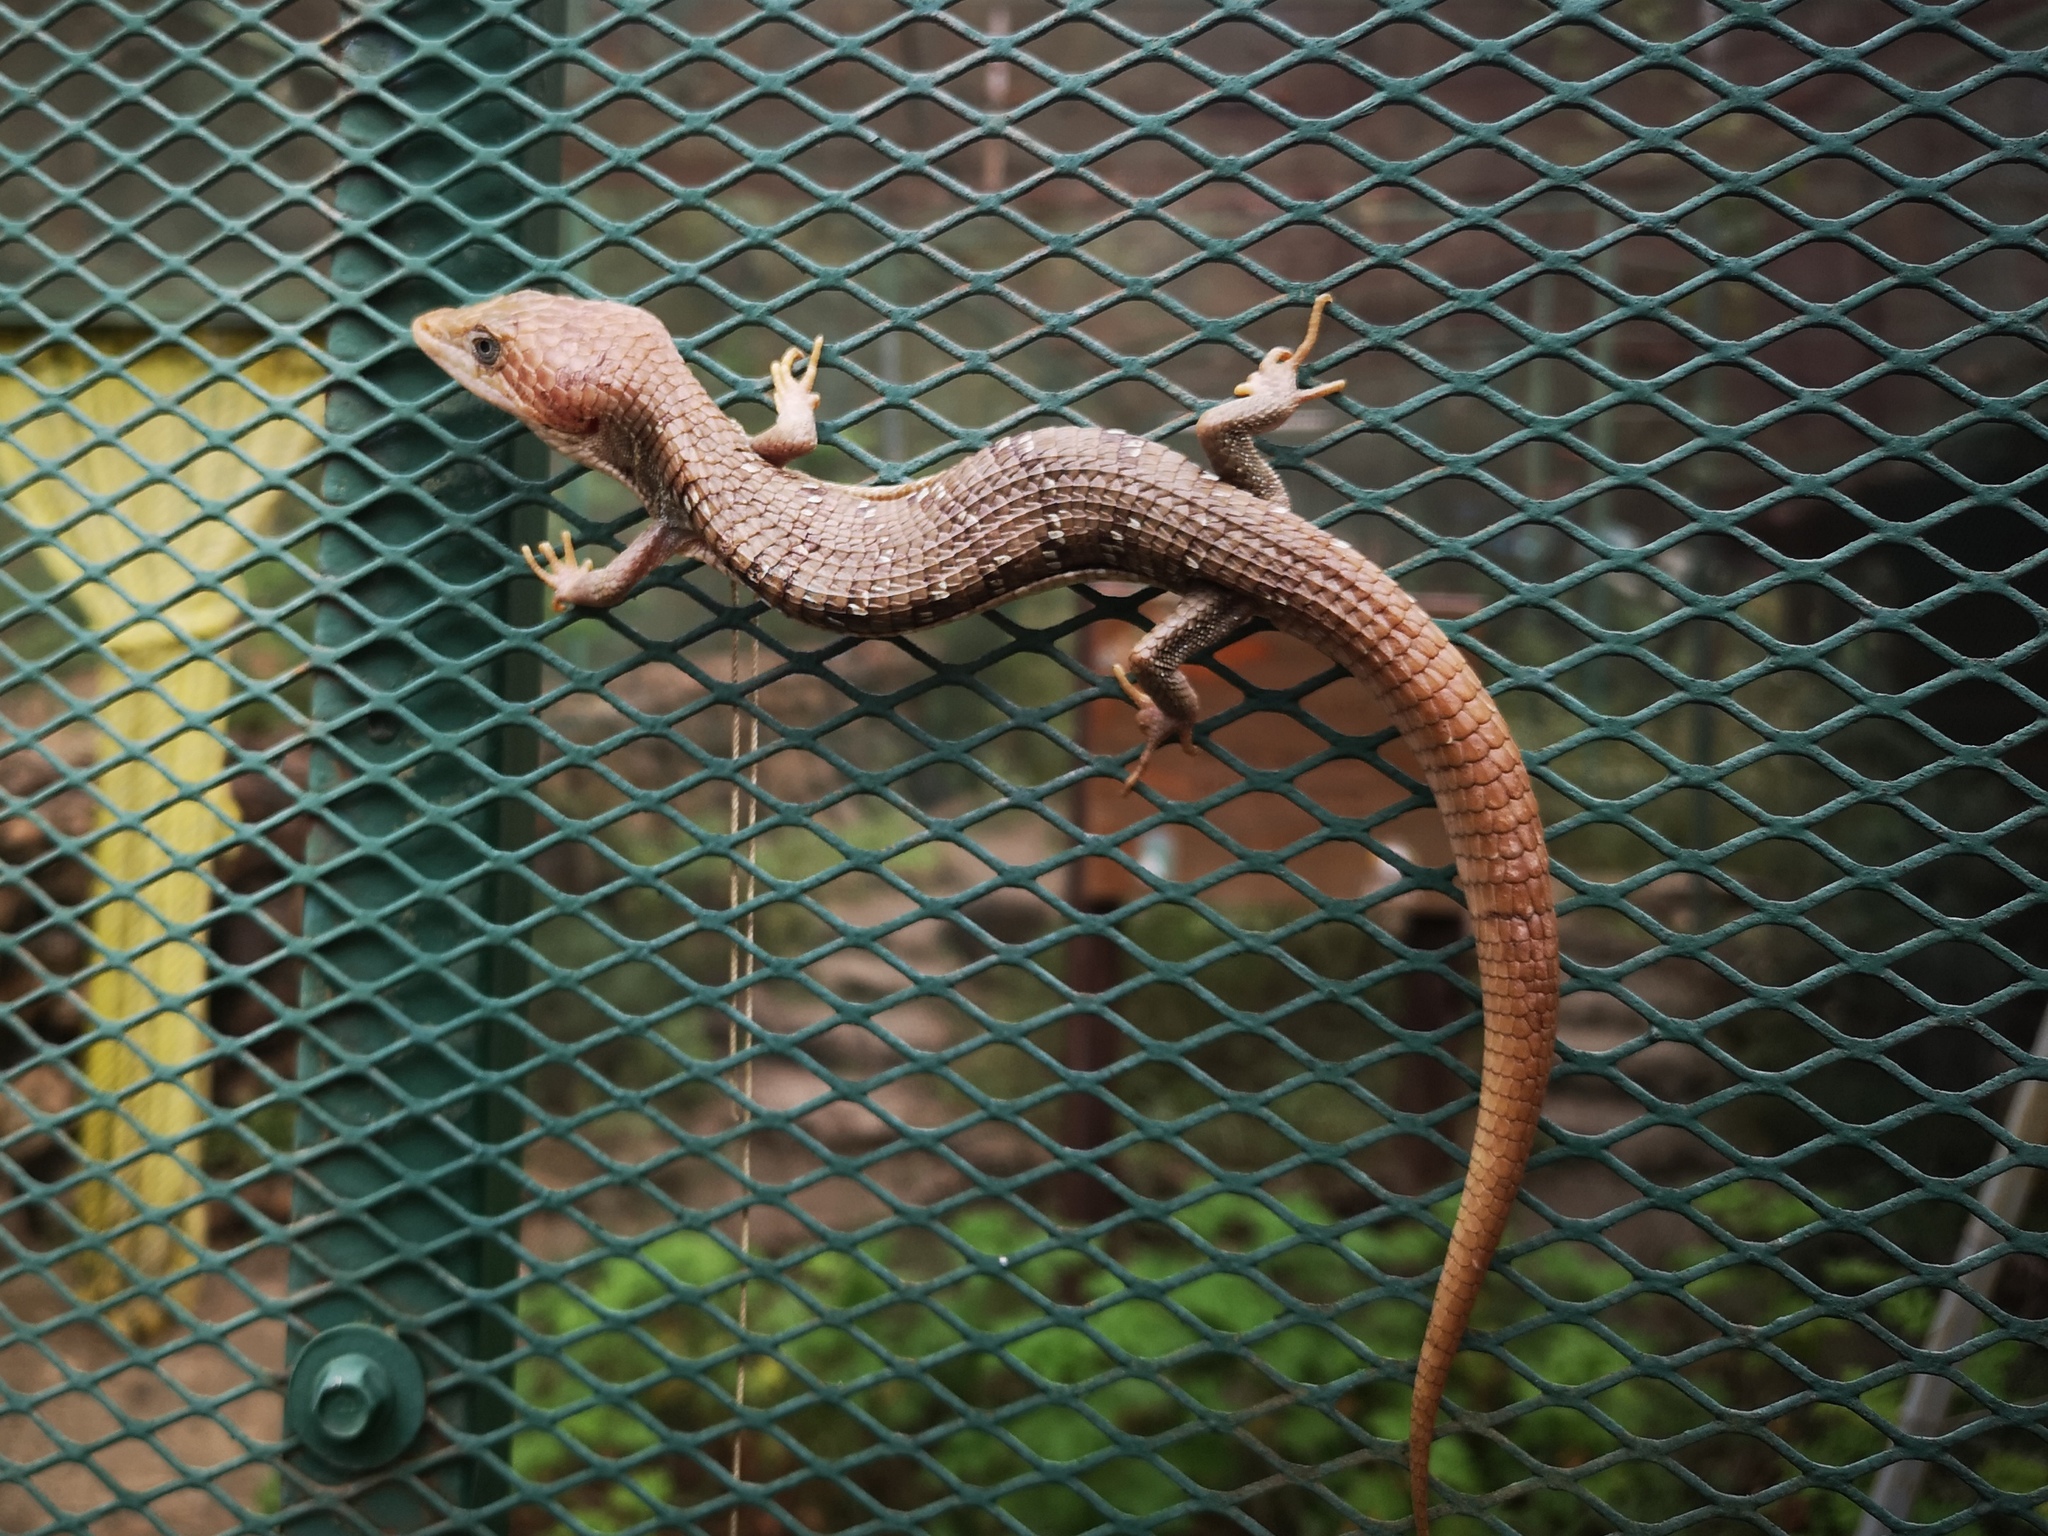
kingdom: Animalia
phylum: Chordata
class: Squamata
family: Anguidae
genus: Gerrhonotus
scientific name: Gerrhonotus infernalis
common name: Texas alligator lizard
